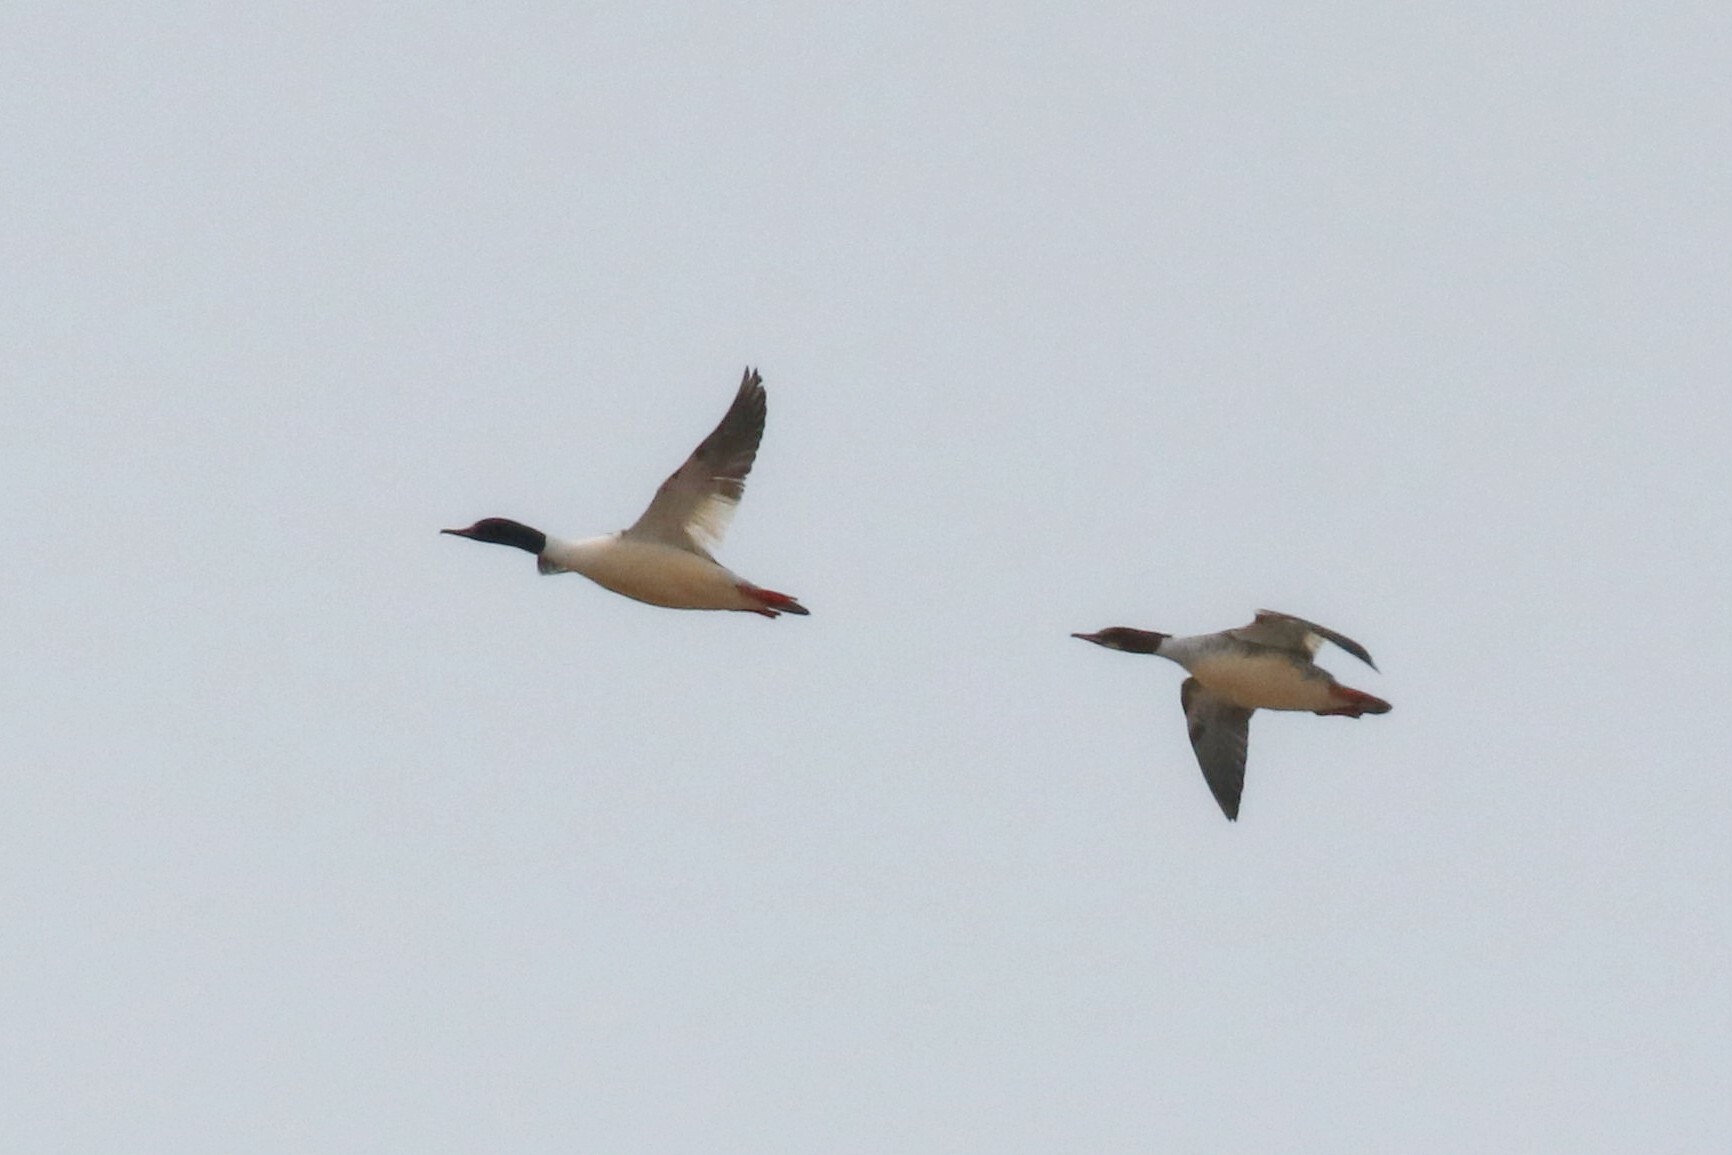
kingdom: Animalia
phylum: Chordata
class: Aves
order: Anseriformes
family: Anatidae
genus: Mergus
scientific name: Mergus merganser
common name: Common merganser
